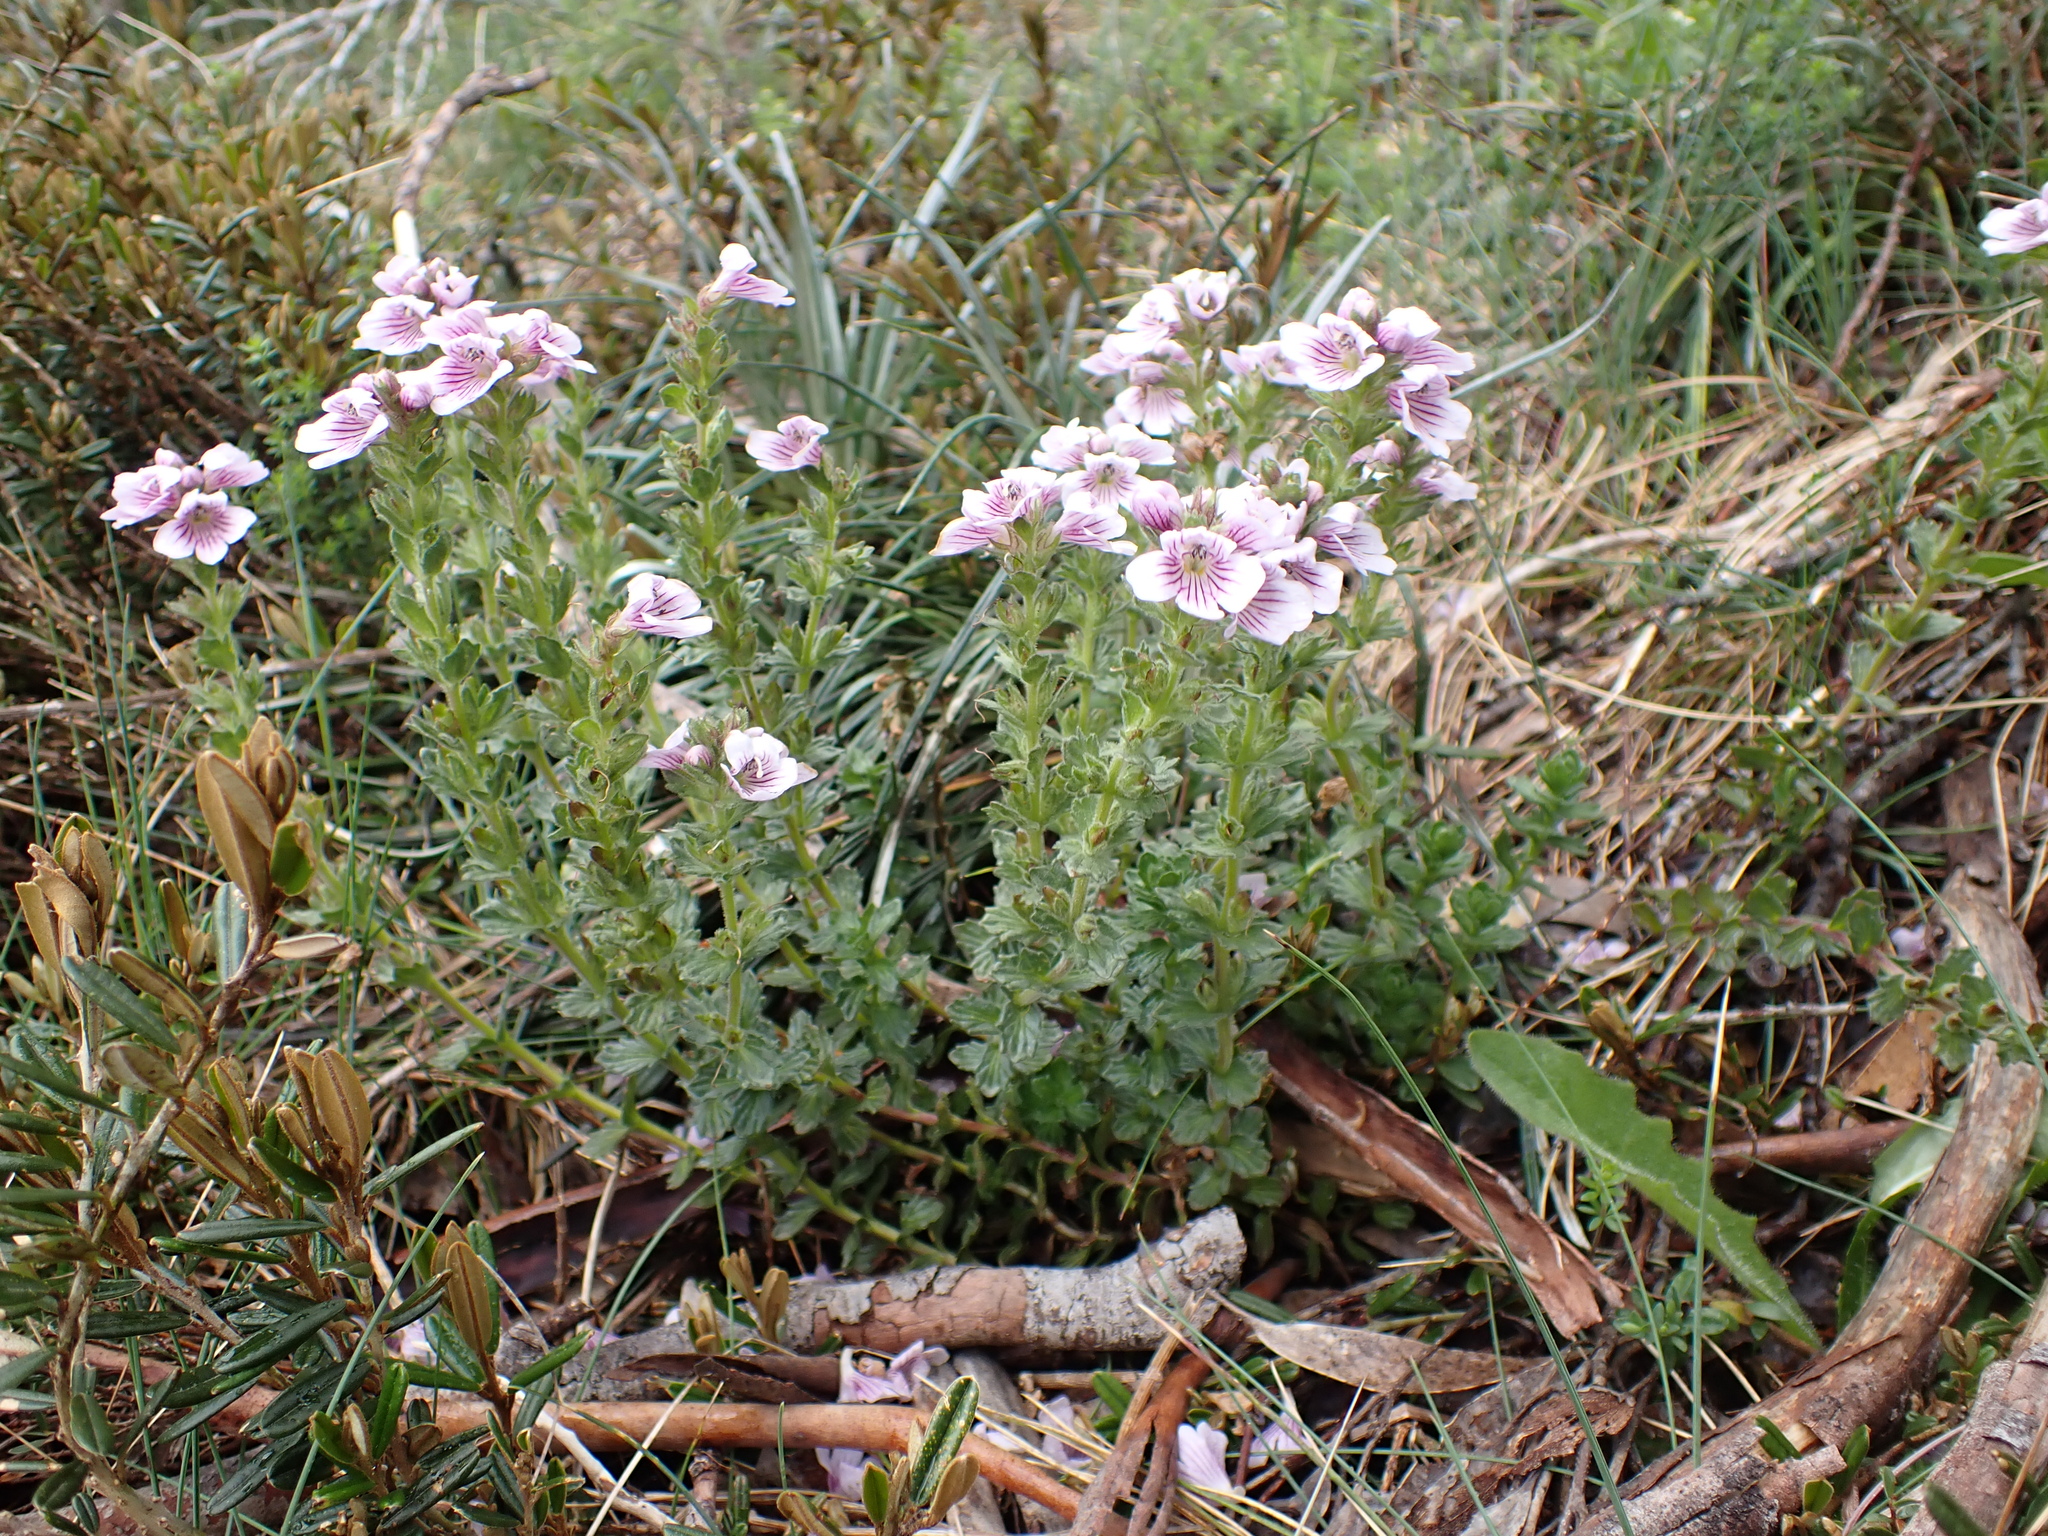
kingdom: Plantae
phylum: Tracheophyta
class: Magnoliopsida
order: Lamiales
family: Orobanchaceae
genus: Euphrasia
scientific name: Euphrasia lasianthera
